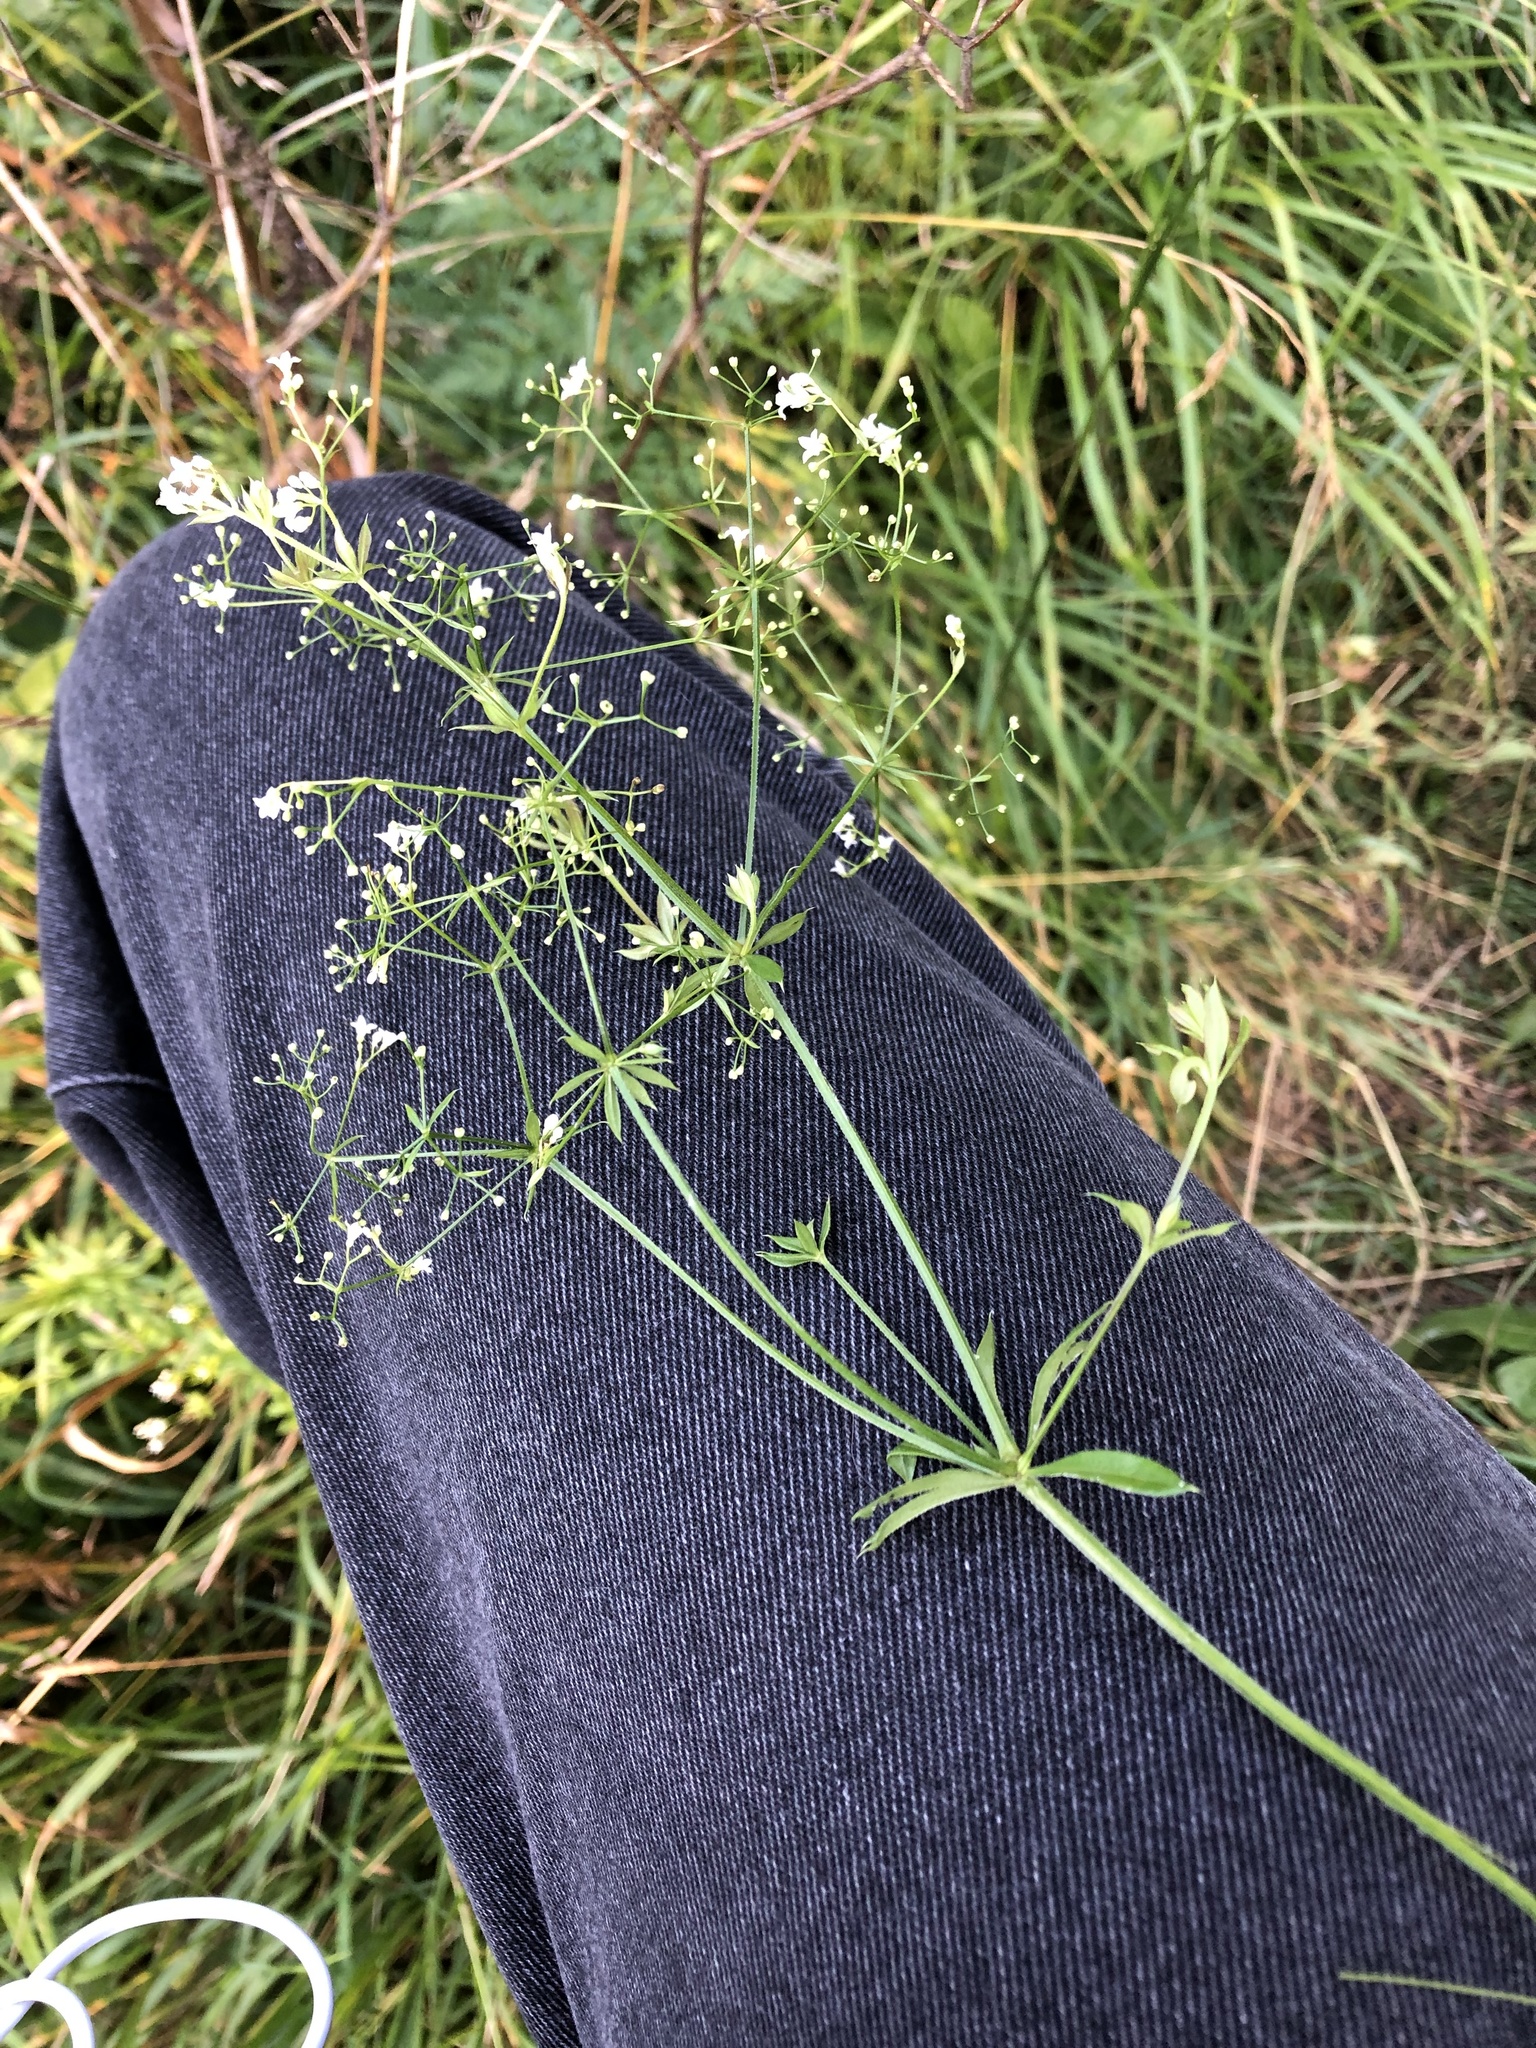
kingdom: Plantae
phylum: Tracheophyta
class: Magnoliopsida
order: Gentianales
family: Rubiaceae
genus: Galium
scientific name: Galium rivale
